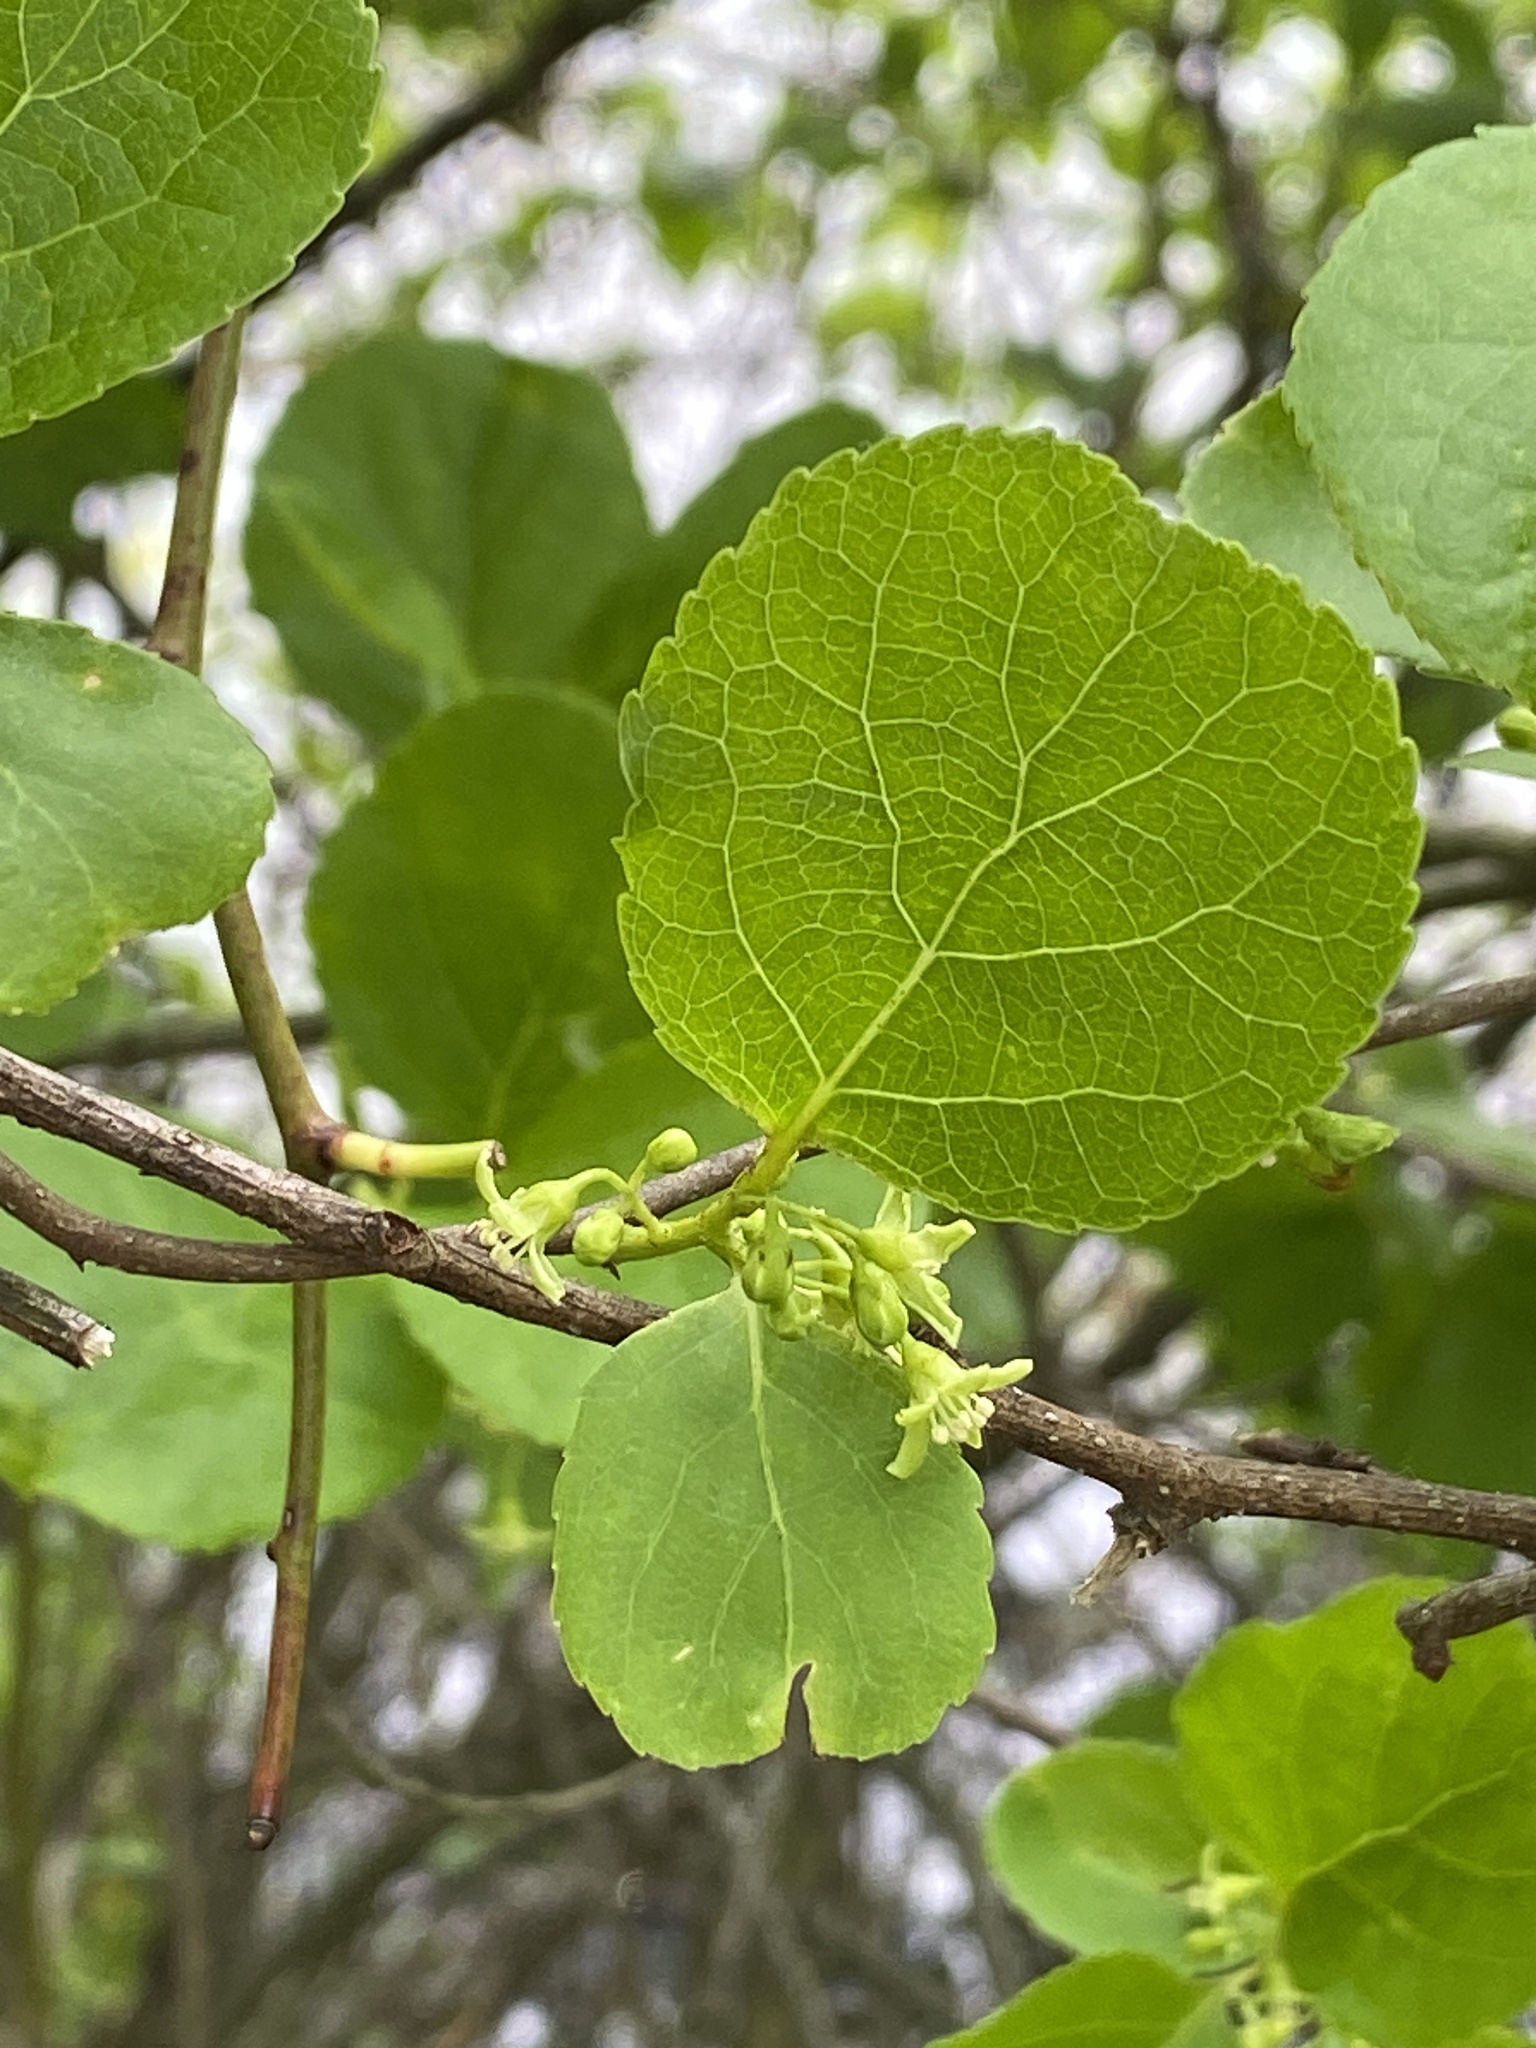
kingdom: Plantae
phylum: Tracheophyta
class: Magnoliopsida
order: Celastrales
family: Celastraceae
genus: Celastrus
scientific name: Celastrus orbiculatus
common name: Oriental bittersweet
